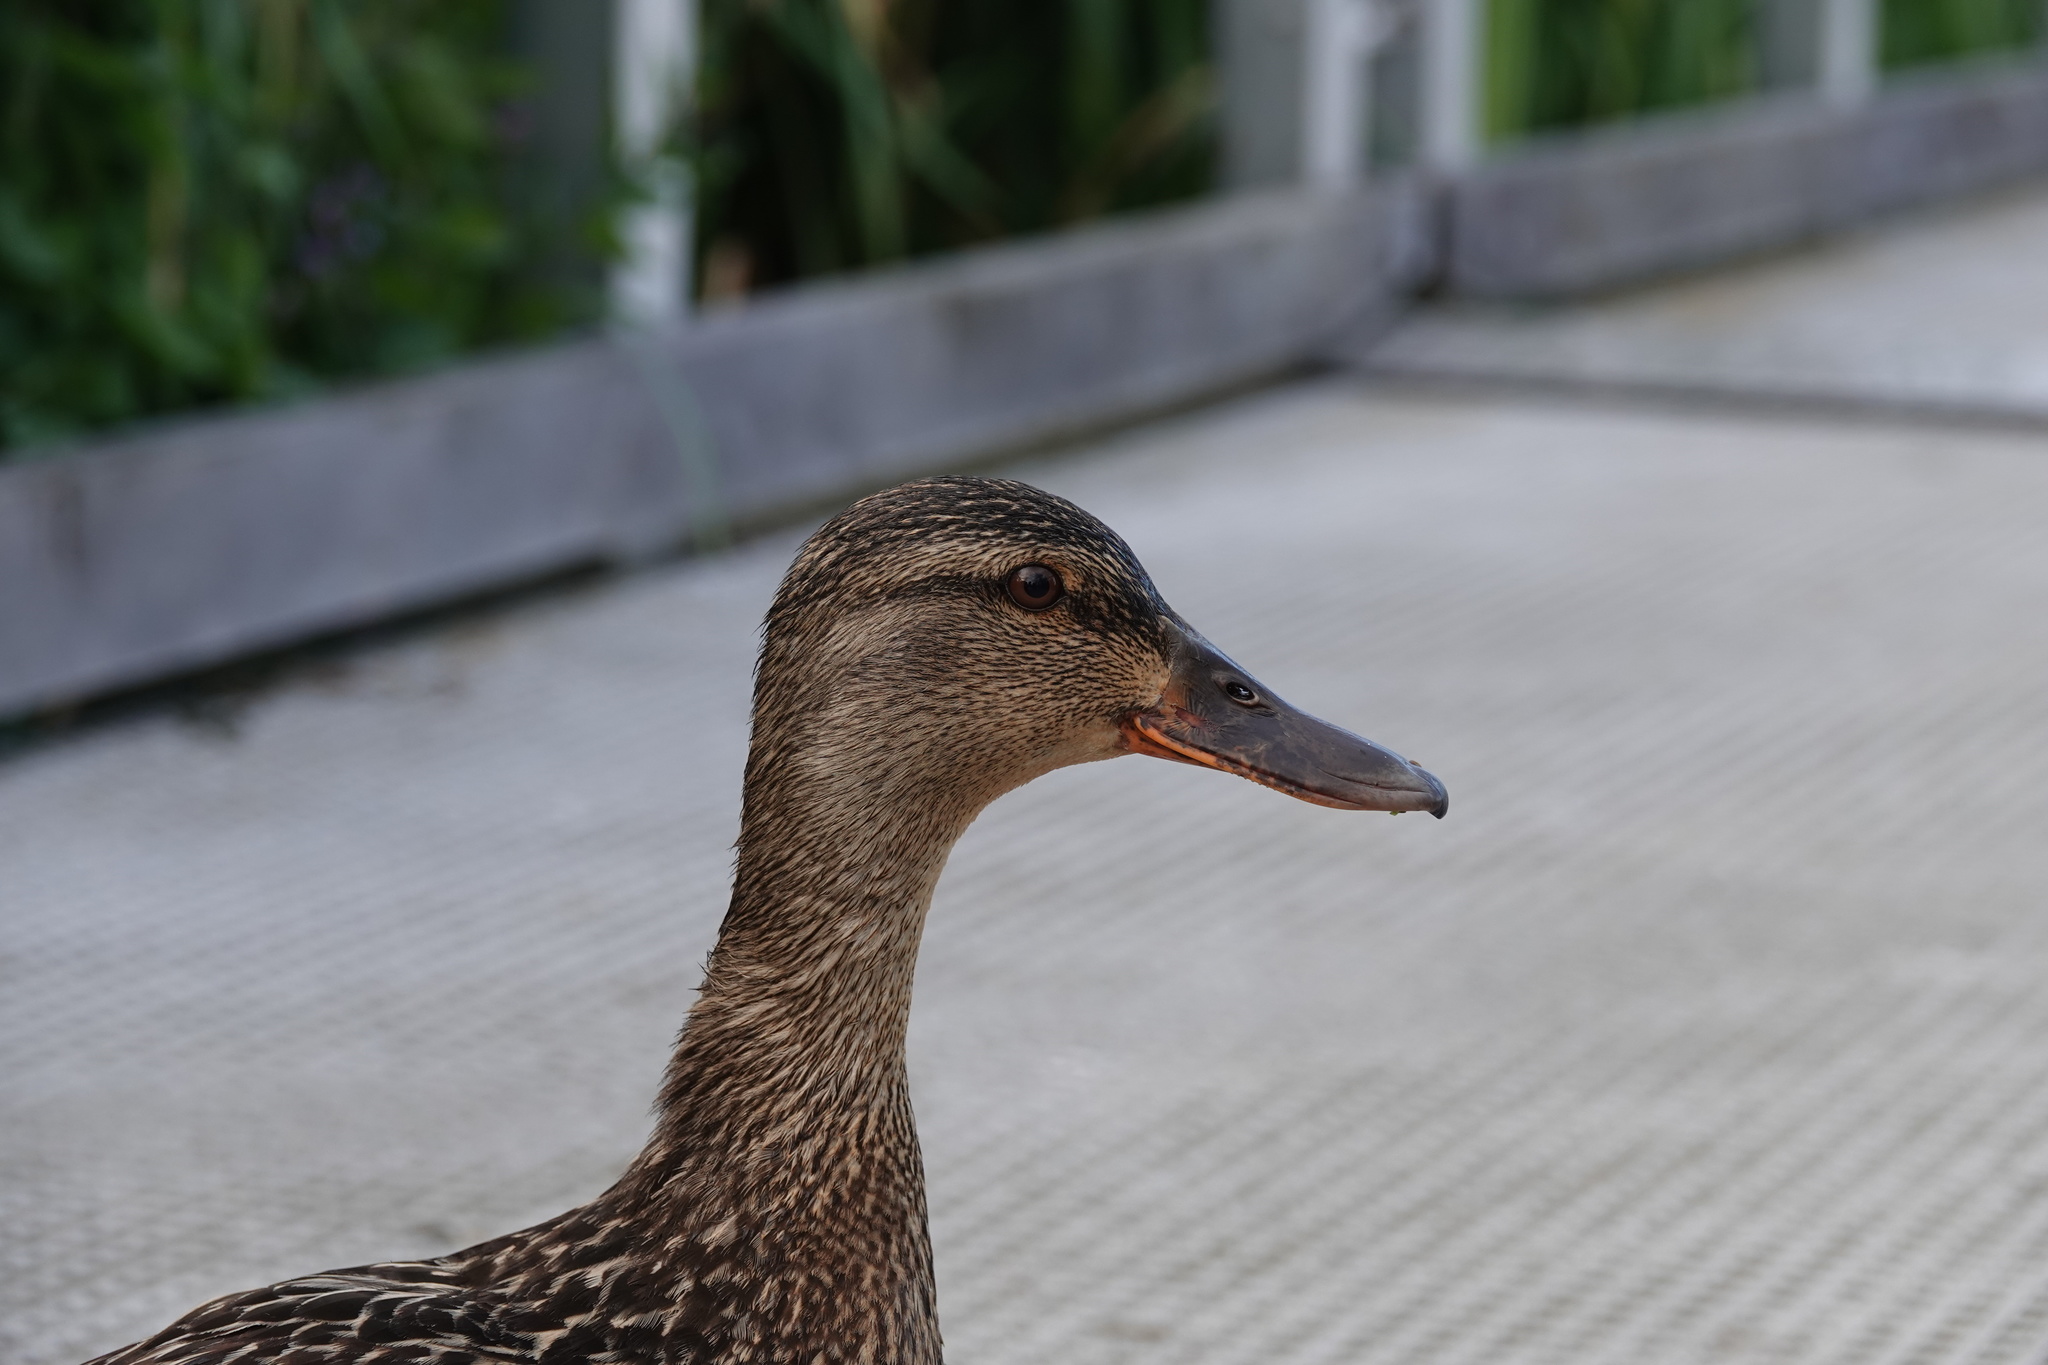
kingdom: Animalia
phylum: Chordata
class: Aves
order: Anseriformes
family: Anatidae
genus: Anas
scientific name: Anas platyrhynchos
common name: Mallard
